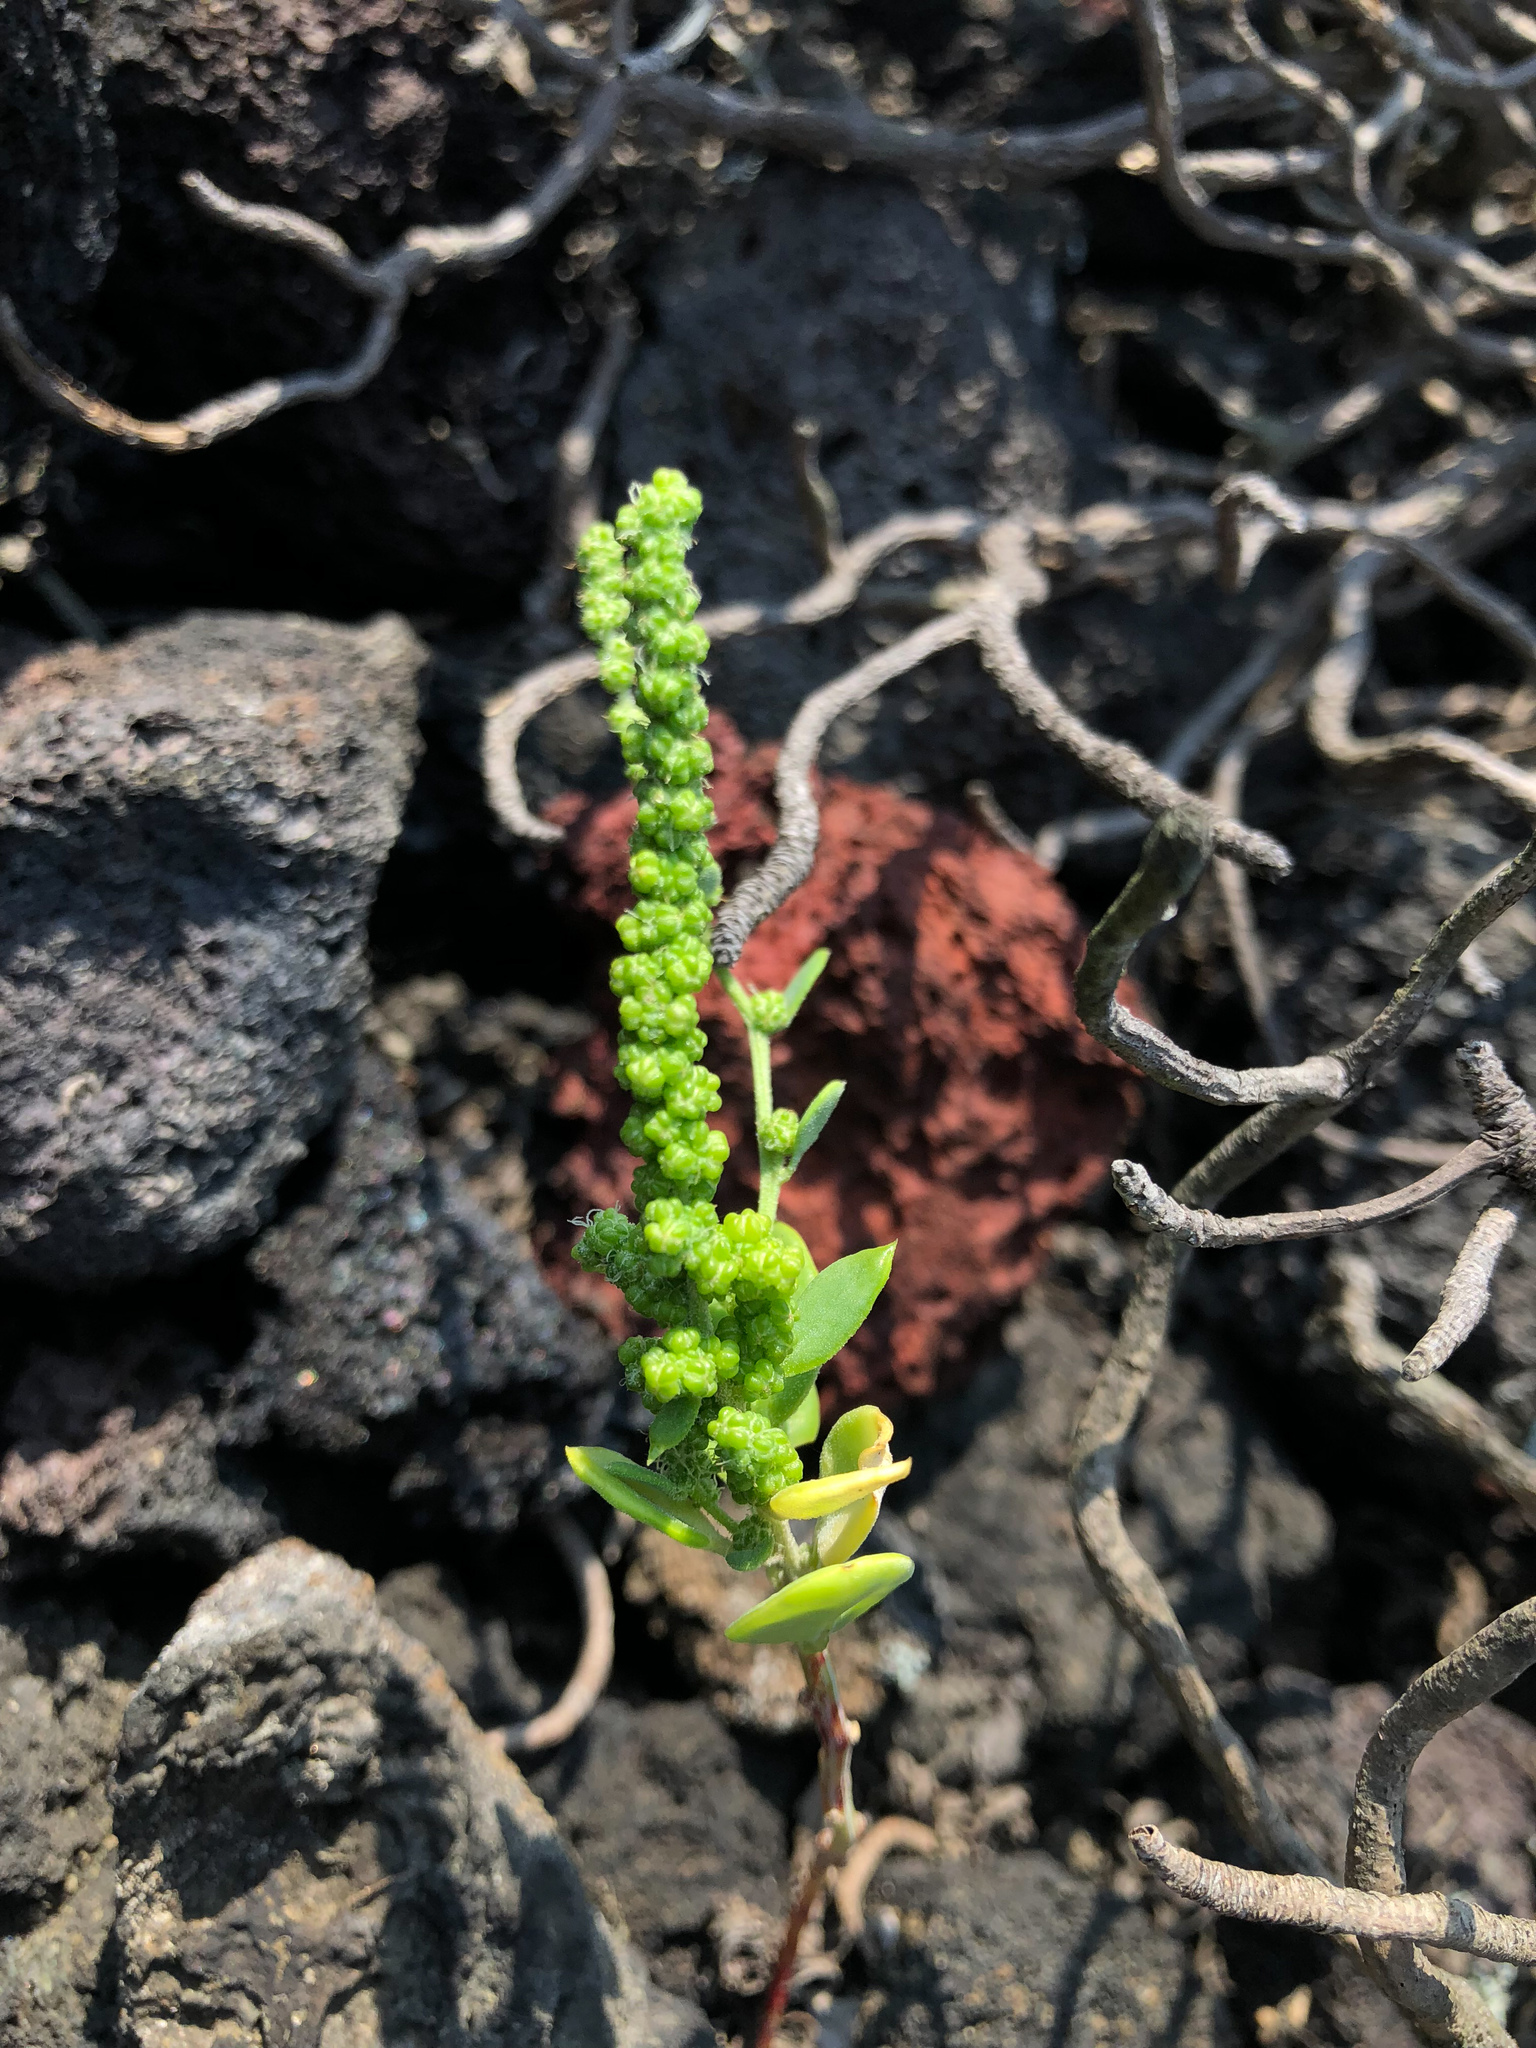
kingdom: Plantae
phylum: Tracheophyta
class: Magnoliopsida
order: Caryophyllales
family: Amaranthaceae
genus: Chenopodium
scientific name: Chenopodium acuminatum
